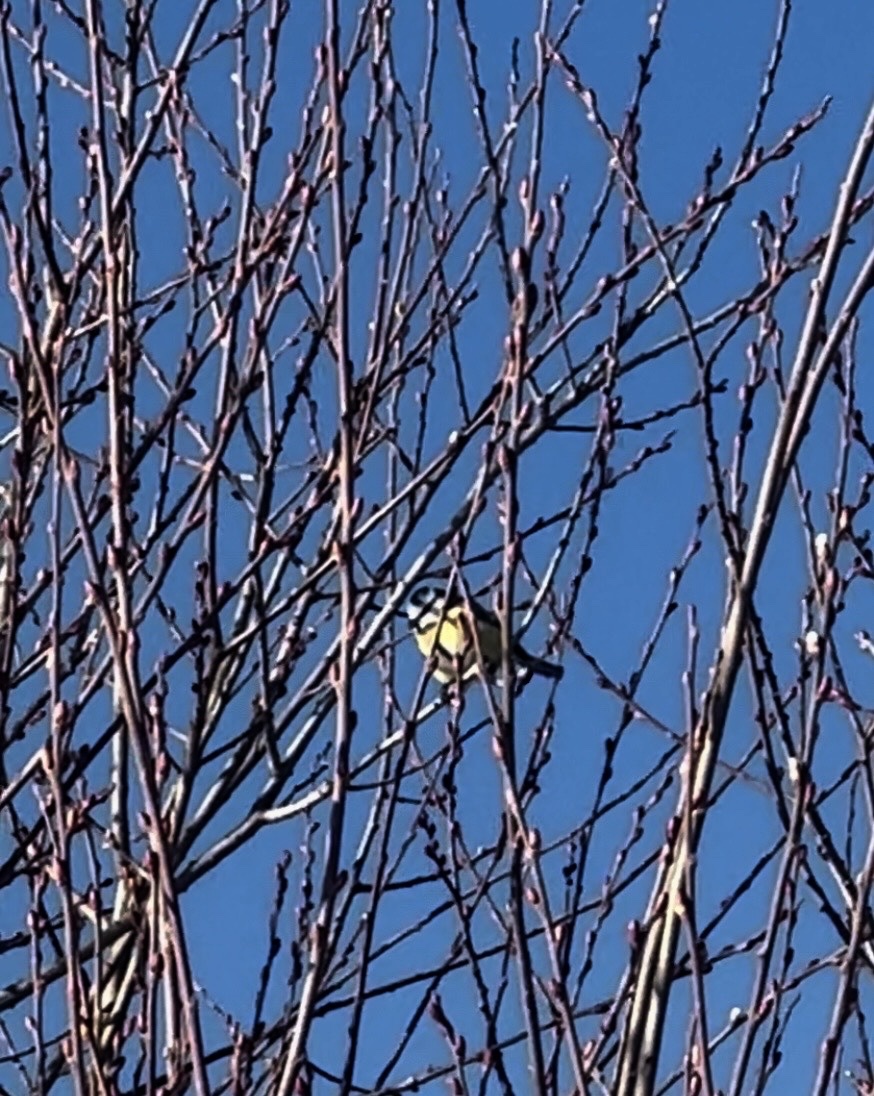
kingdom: Animalia
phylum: Chordata
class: Aves
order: Passeriformes
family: Paridae
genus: Cyanistes
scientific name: Cyanistes caeruleus
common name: Eurasian blue tit
